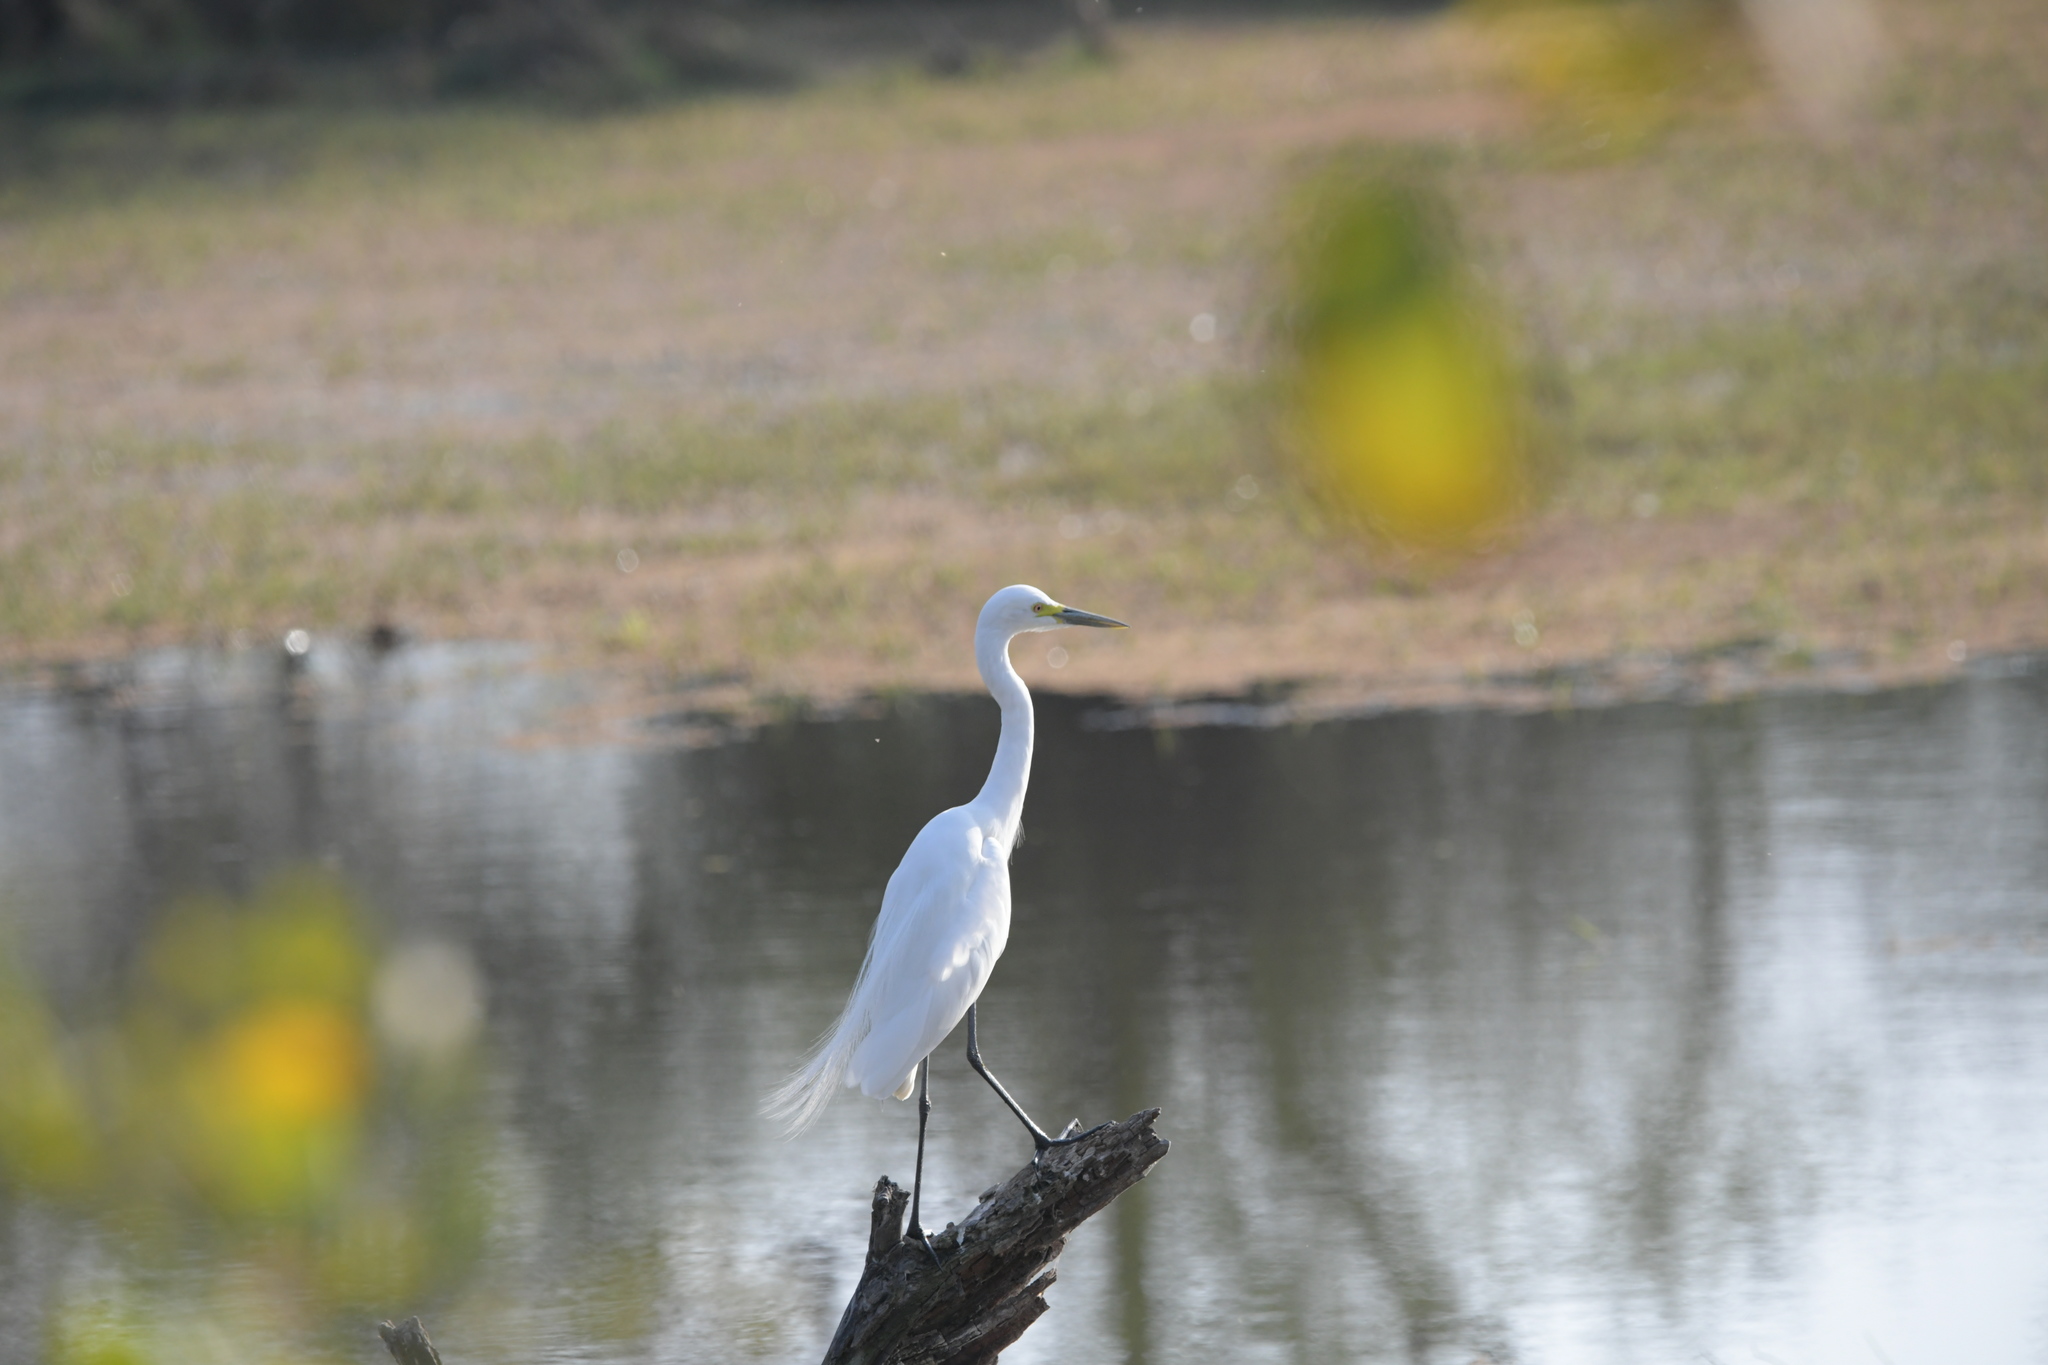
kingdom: Animalia
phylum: Chordata
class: Aves
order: Pelecaniformes
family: Ardeidae
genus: Egretta
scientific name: Egretta intermedia
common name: Intermediate egret
